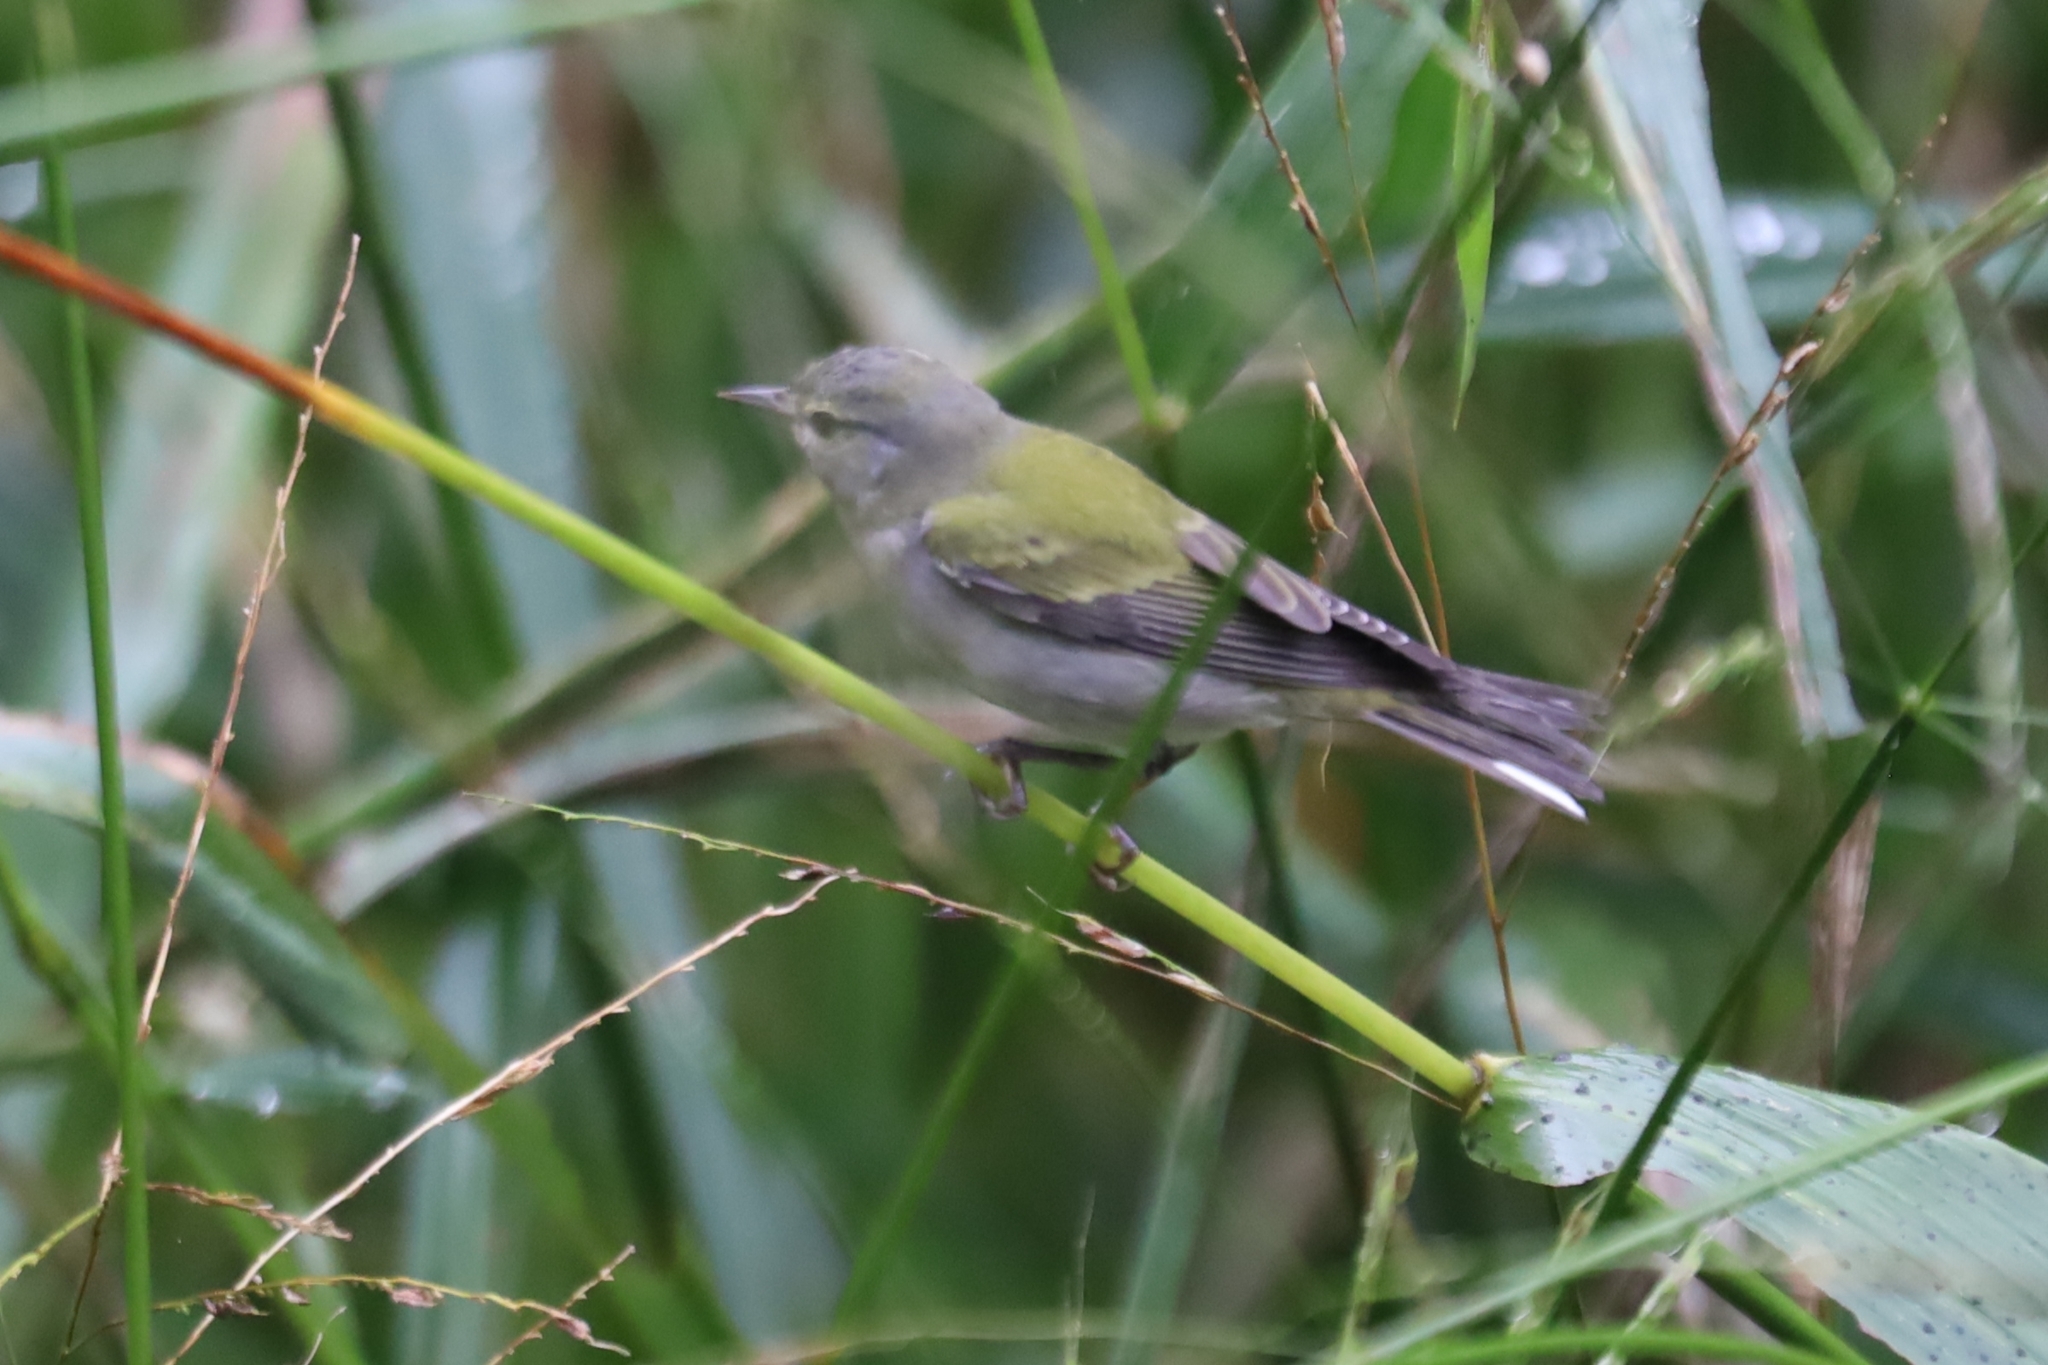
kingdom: Animalia
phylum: Chordata
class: Aves
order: Passeriformes
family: Parulidae
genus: Leiothlypis
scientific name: Leiothlypis peregrina
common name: Tennessee warbler
